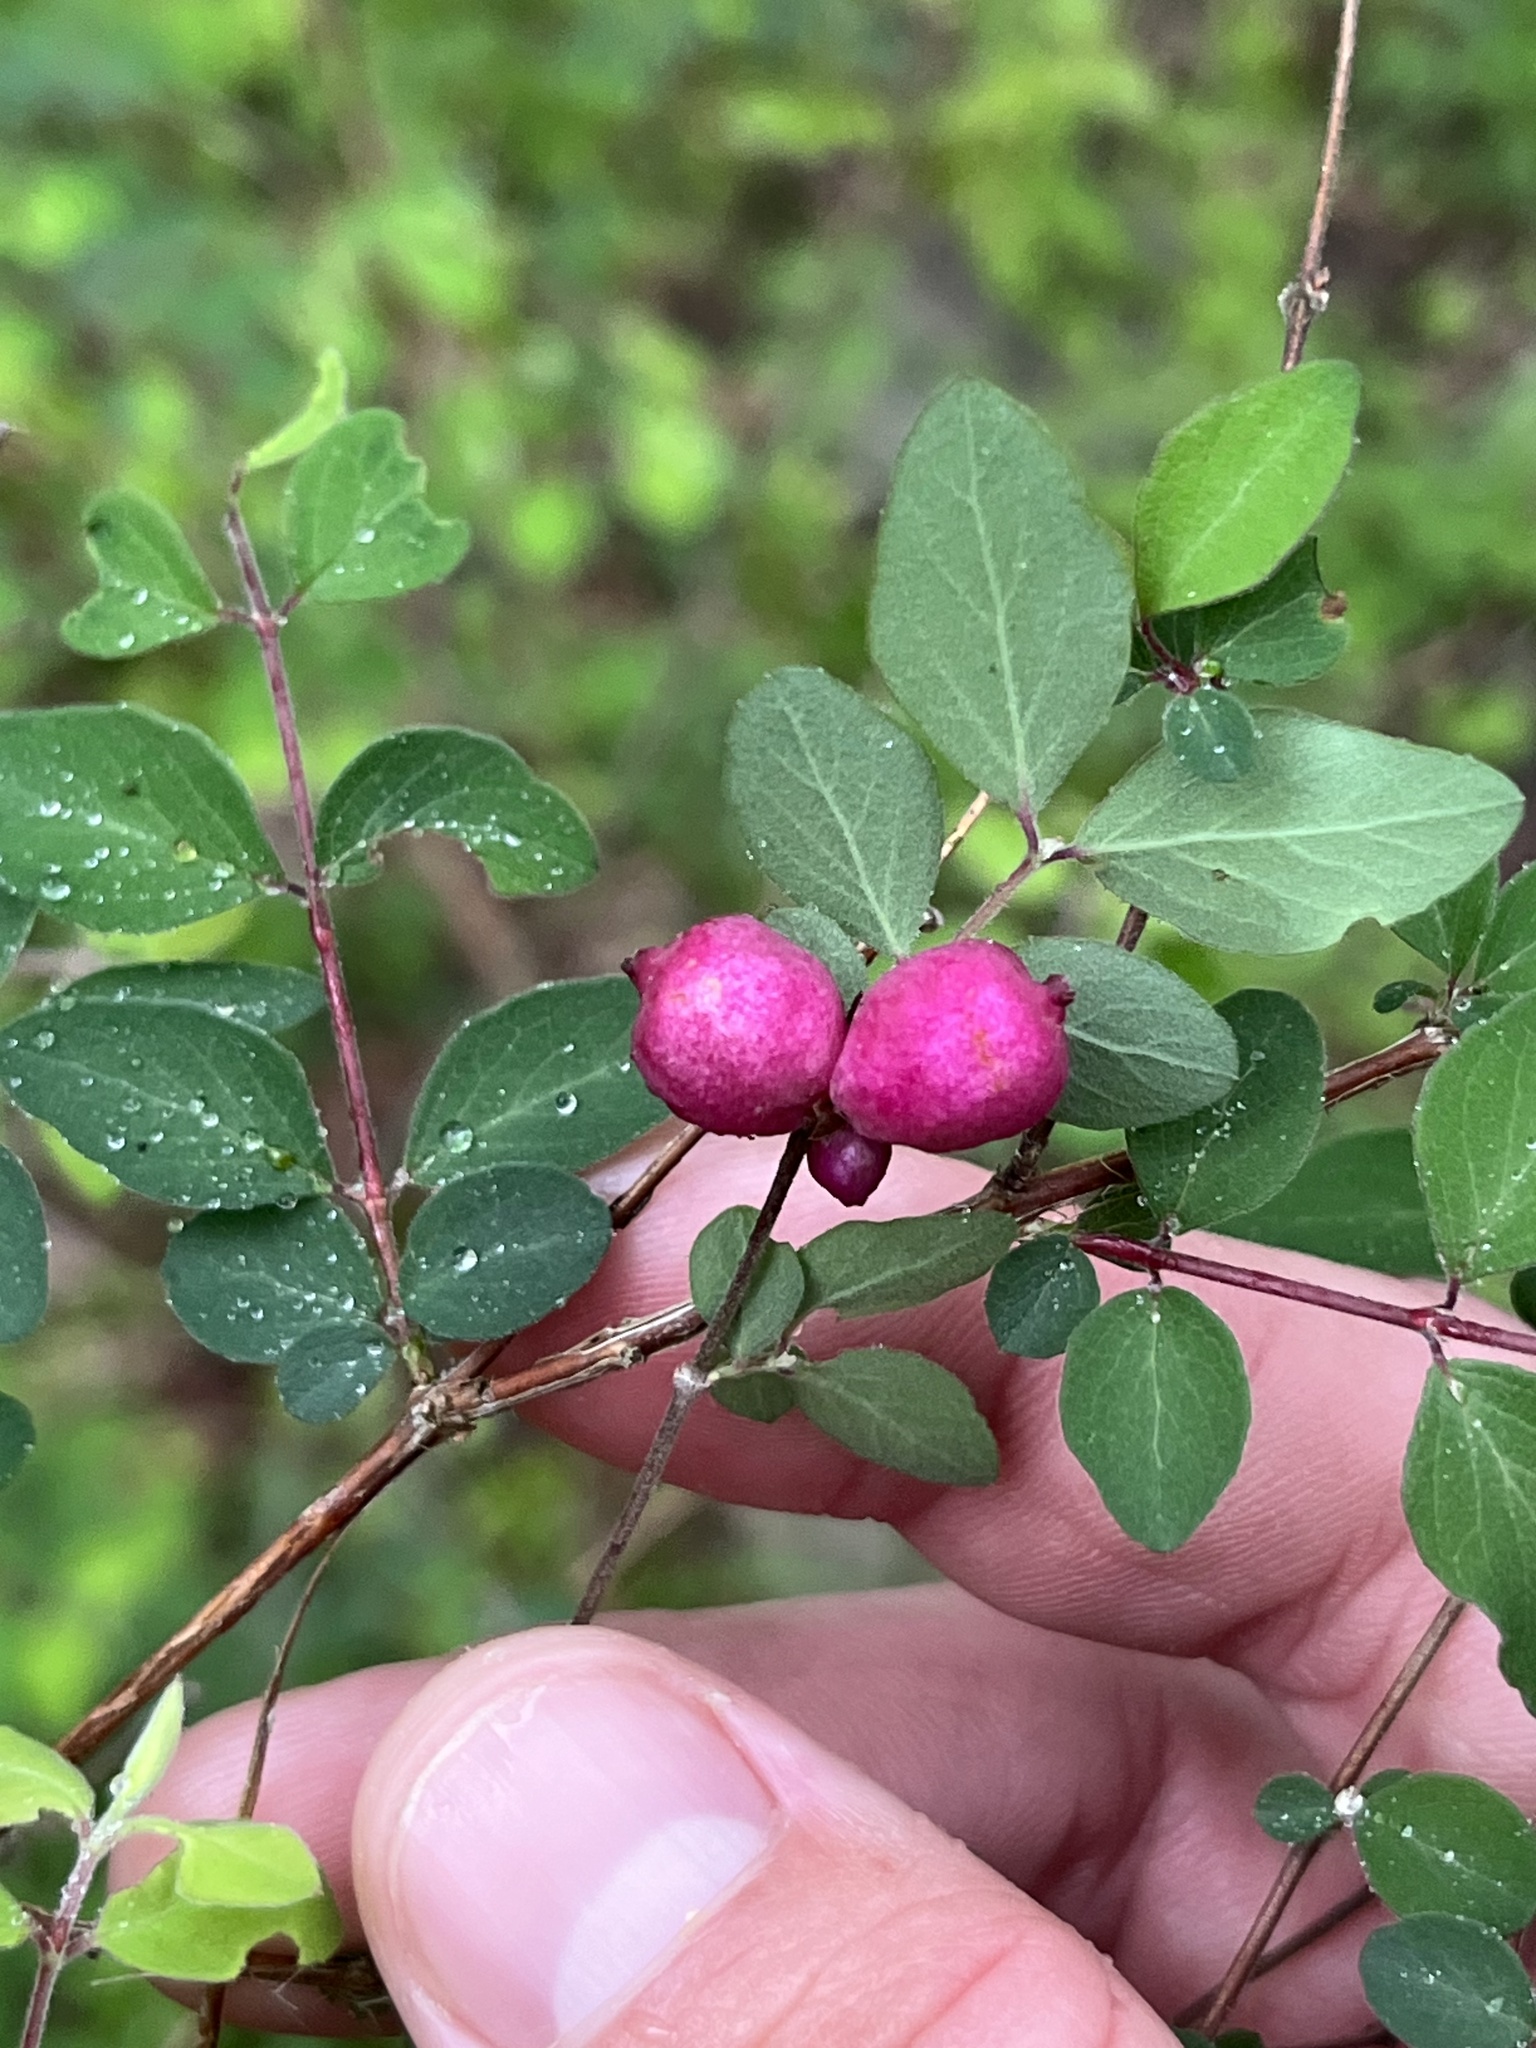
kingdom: Plantae
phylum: Tracheophyta
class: Magnoliopsida
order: Dipsacales
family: Caprifoliaceae
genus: Symphoricarpos
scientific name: Symphoricarpos orbiculatus
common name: Coralberry
